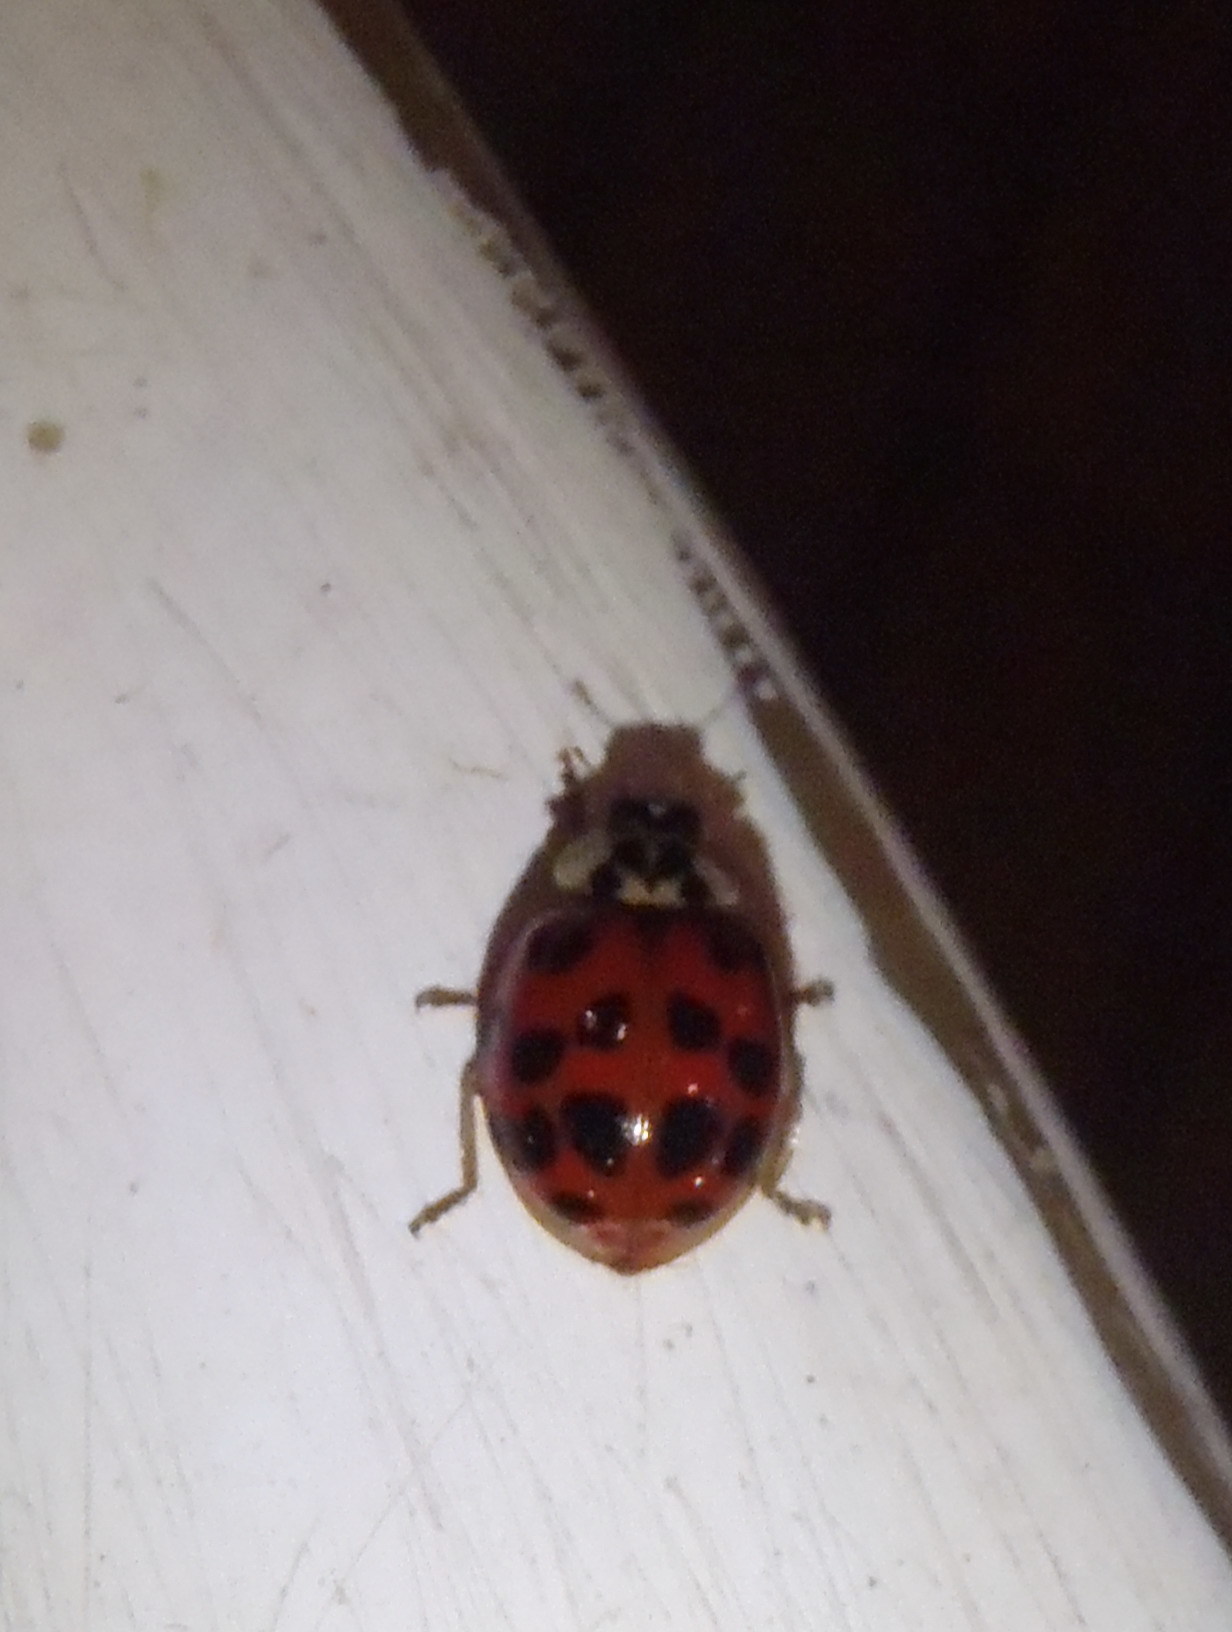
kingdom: Animalia
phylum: Arthropoda
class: Insecta
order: Coleoptera
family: Coccinellidae
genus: Harmonia
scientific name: Harmonia axyridis
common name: Harlequin ladybird
